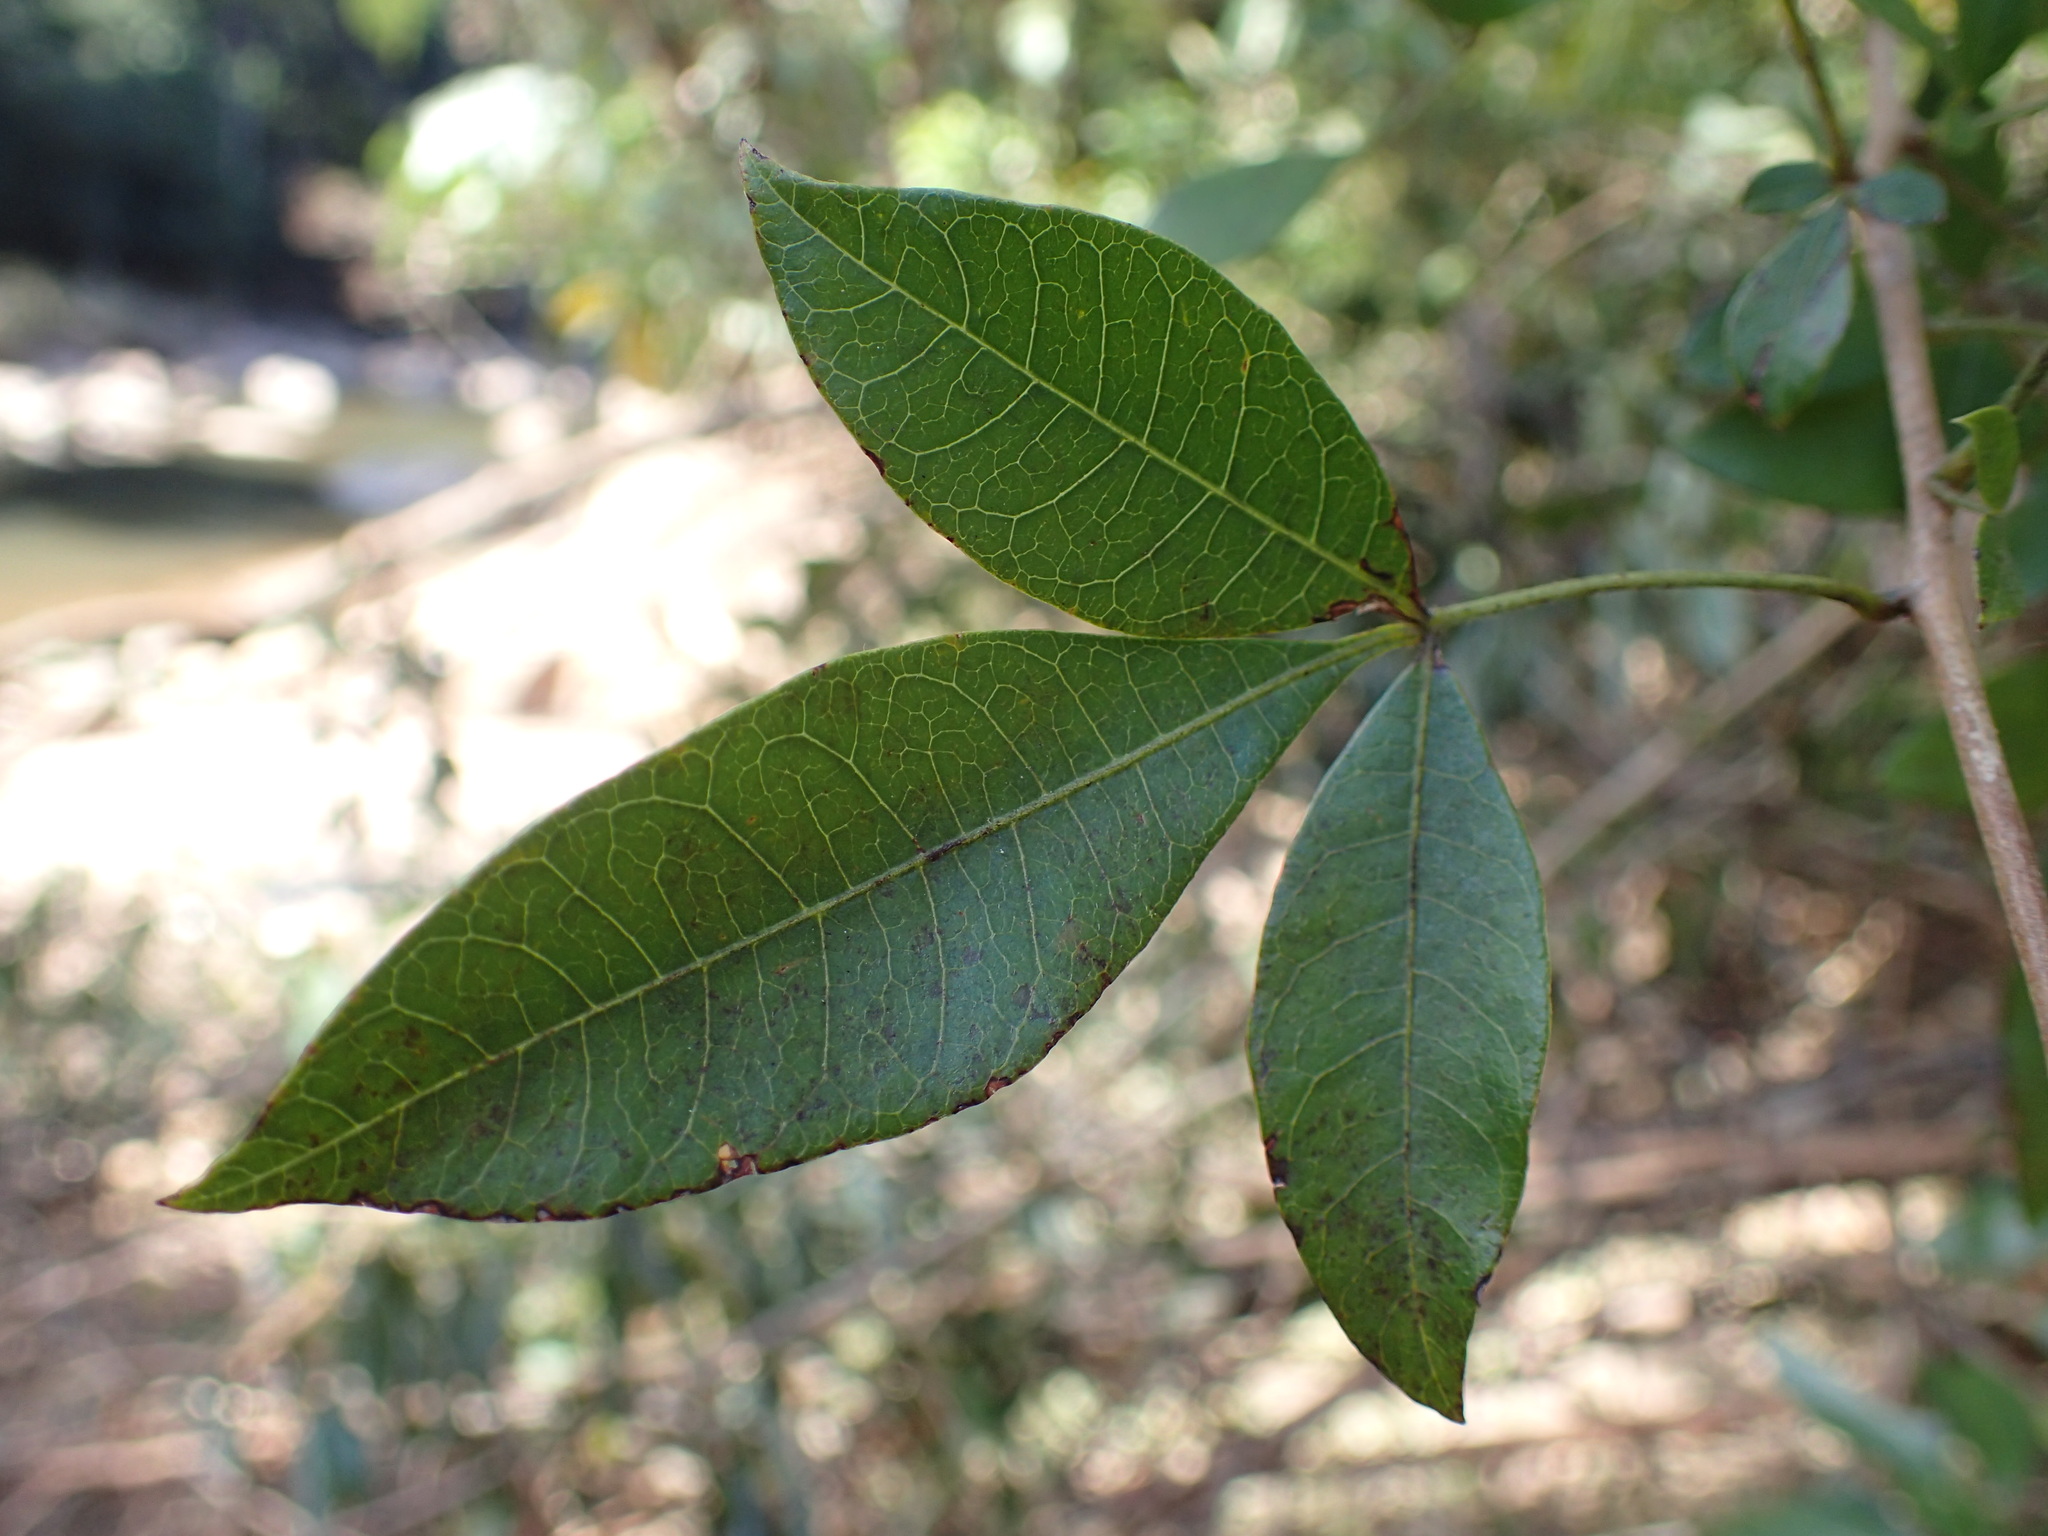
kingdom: Plantae
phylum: Tracheophyta
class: Magnoliopsida
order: Sapindales
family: Anacardiaceae
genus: Searsia
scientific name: Searsia pyroides
